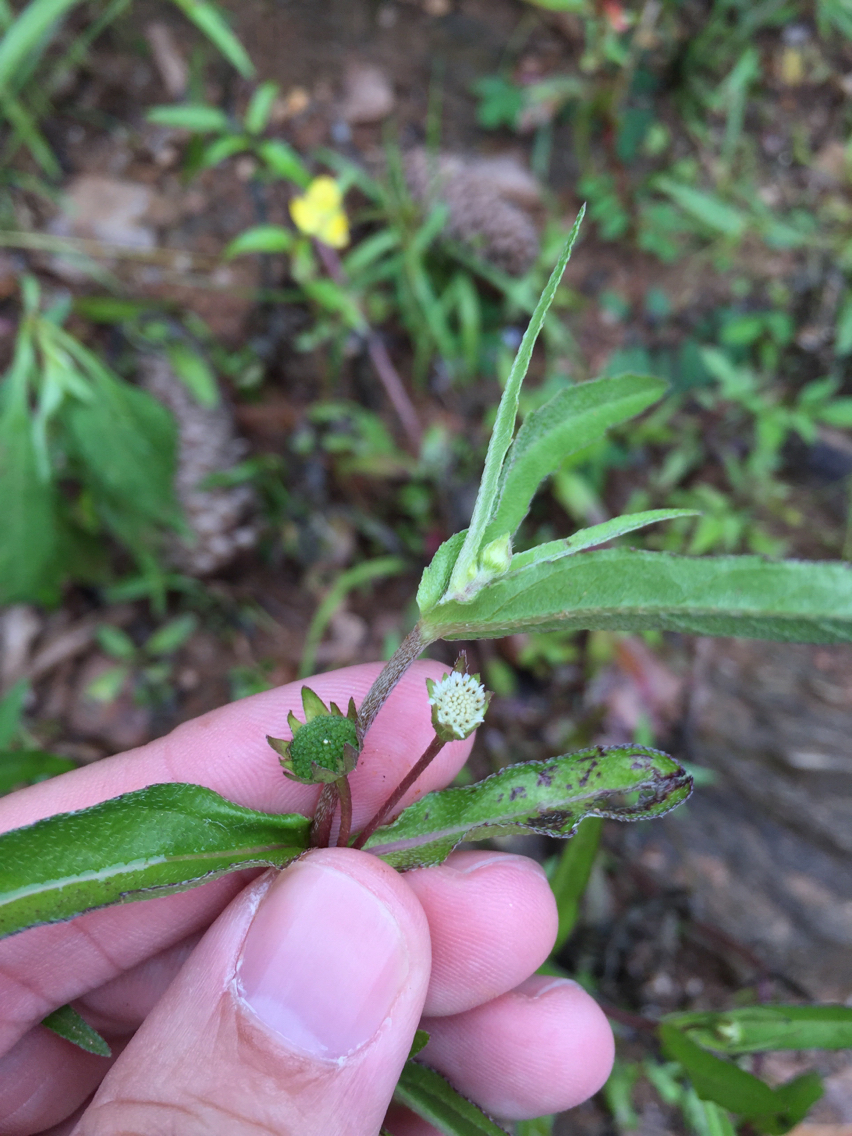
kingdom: Plantae
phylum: Tracheophyta
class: Magnoliopsida
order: Asterales
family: Asteraceae
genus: Eclipta
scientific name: Eclipta prostrata
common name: False daisy
